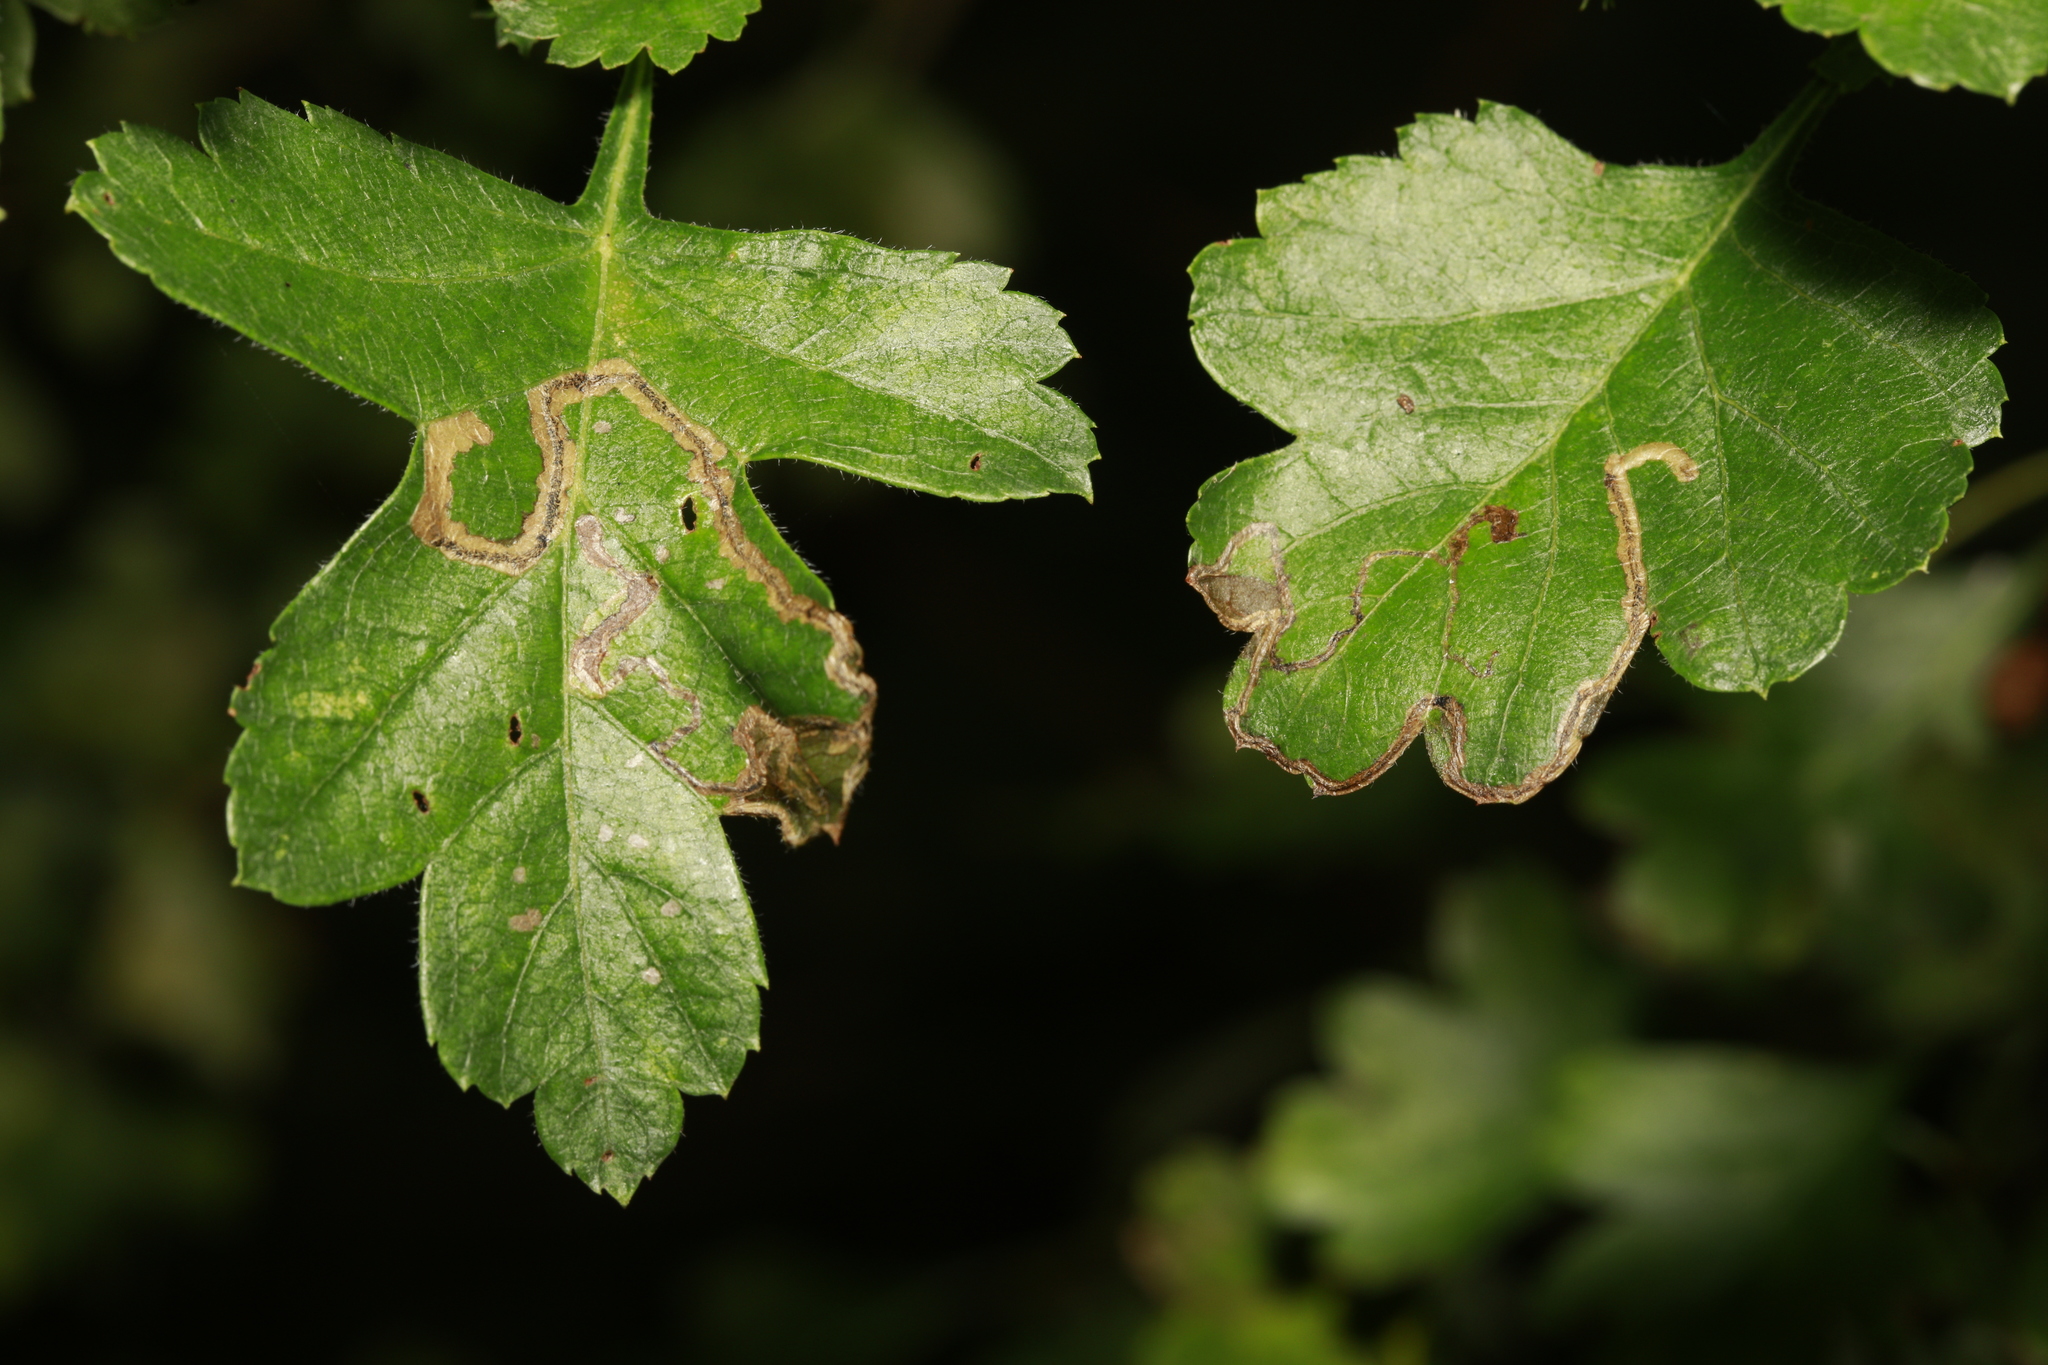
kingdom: Animalia
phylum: Arthropoda
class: Insecta
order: Lepidoptera
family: Lyonetiidae
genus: Lyonetia
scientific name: Lyonetia clerkella
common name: Apple leaf miner
